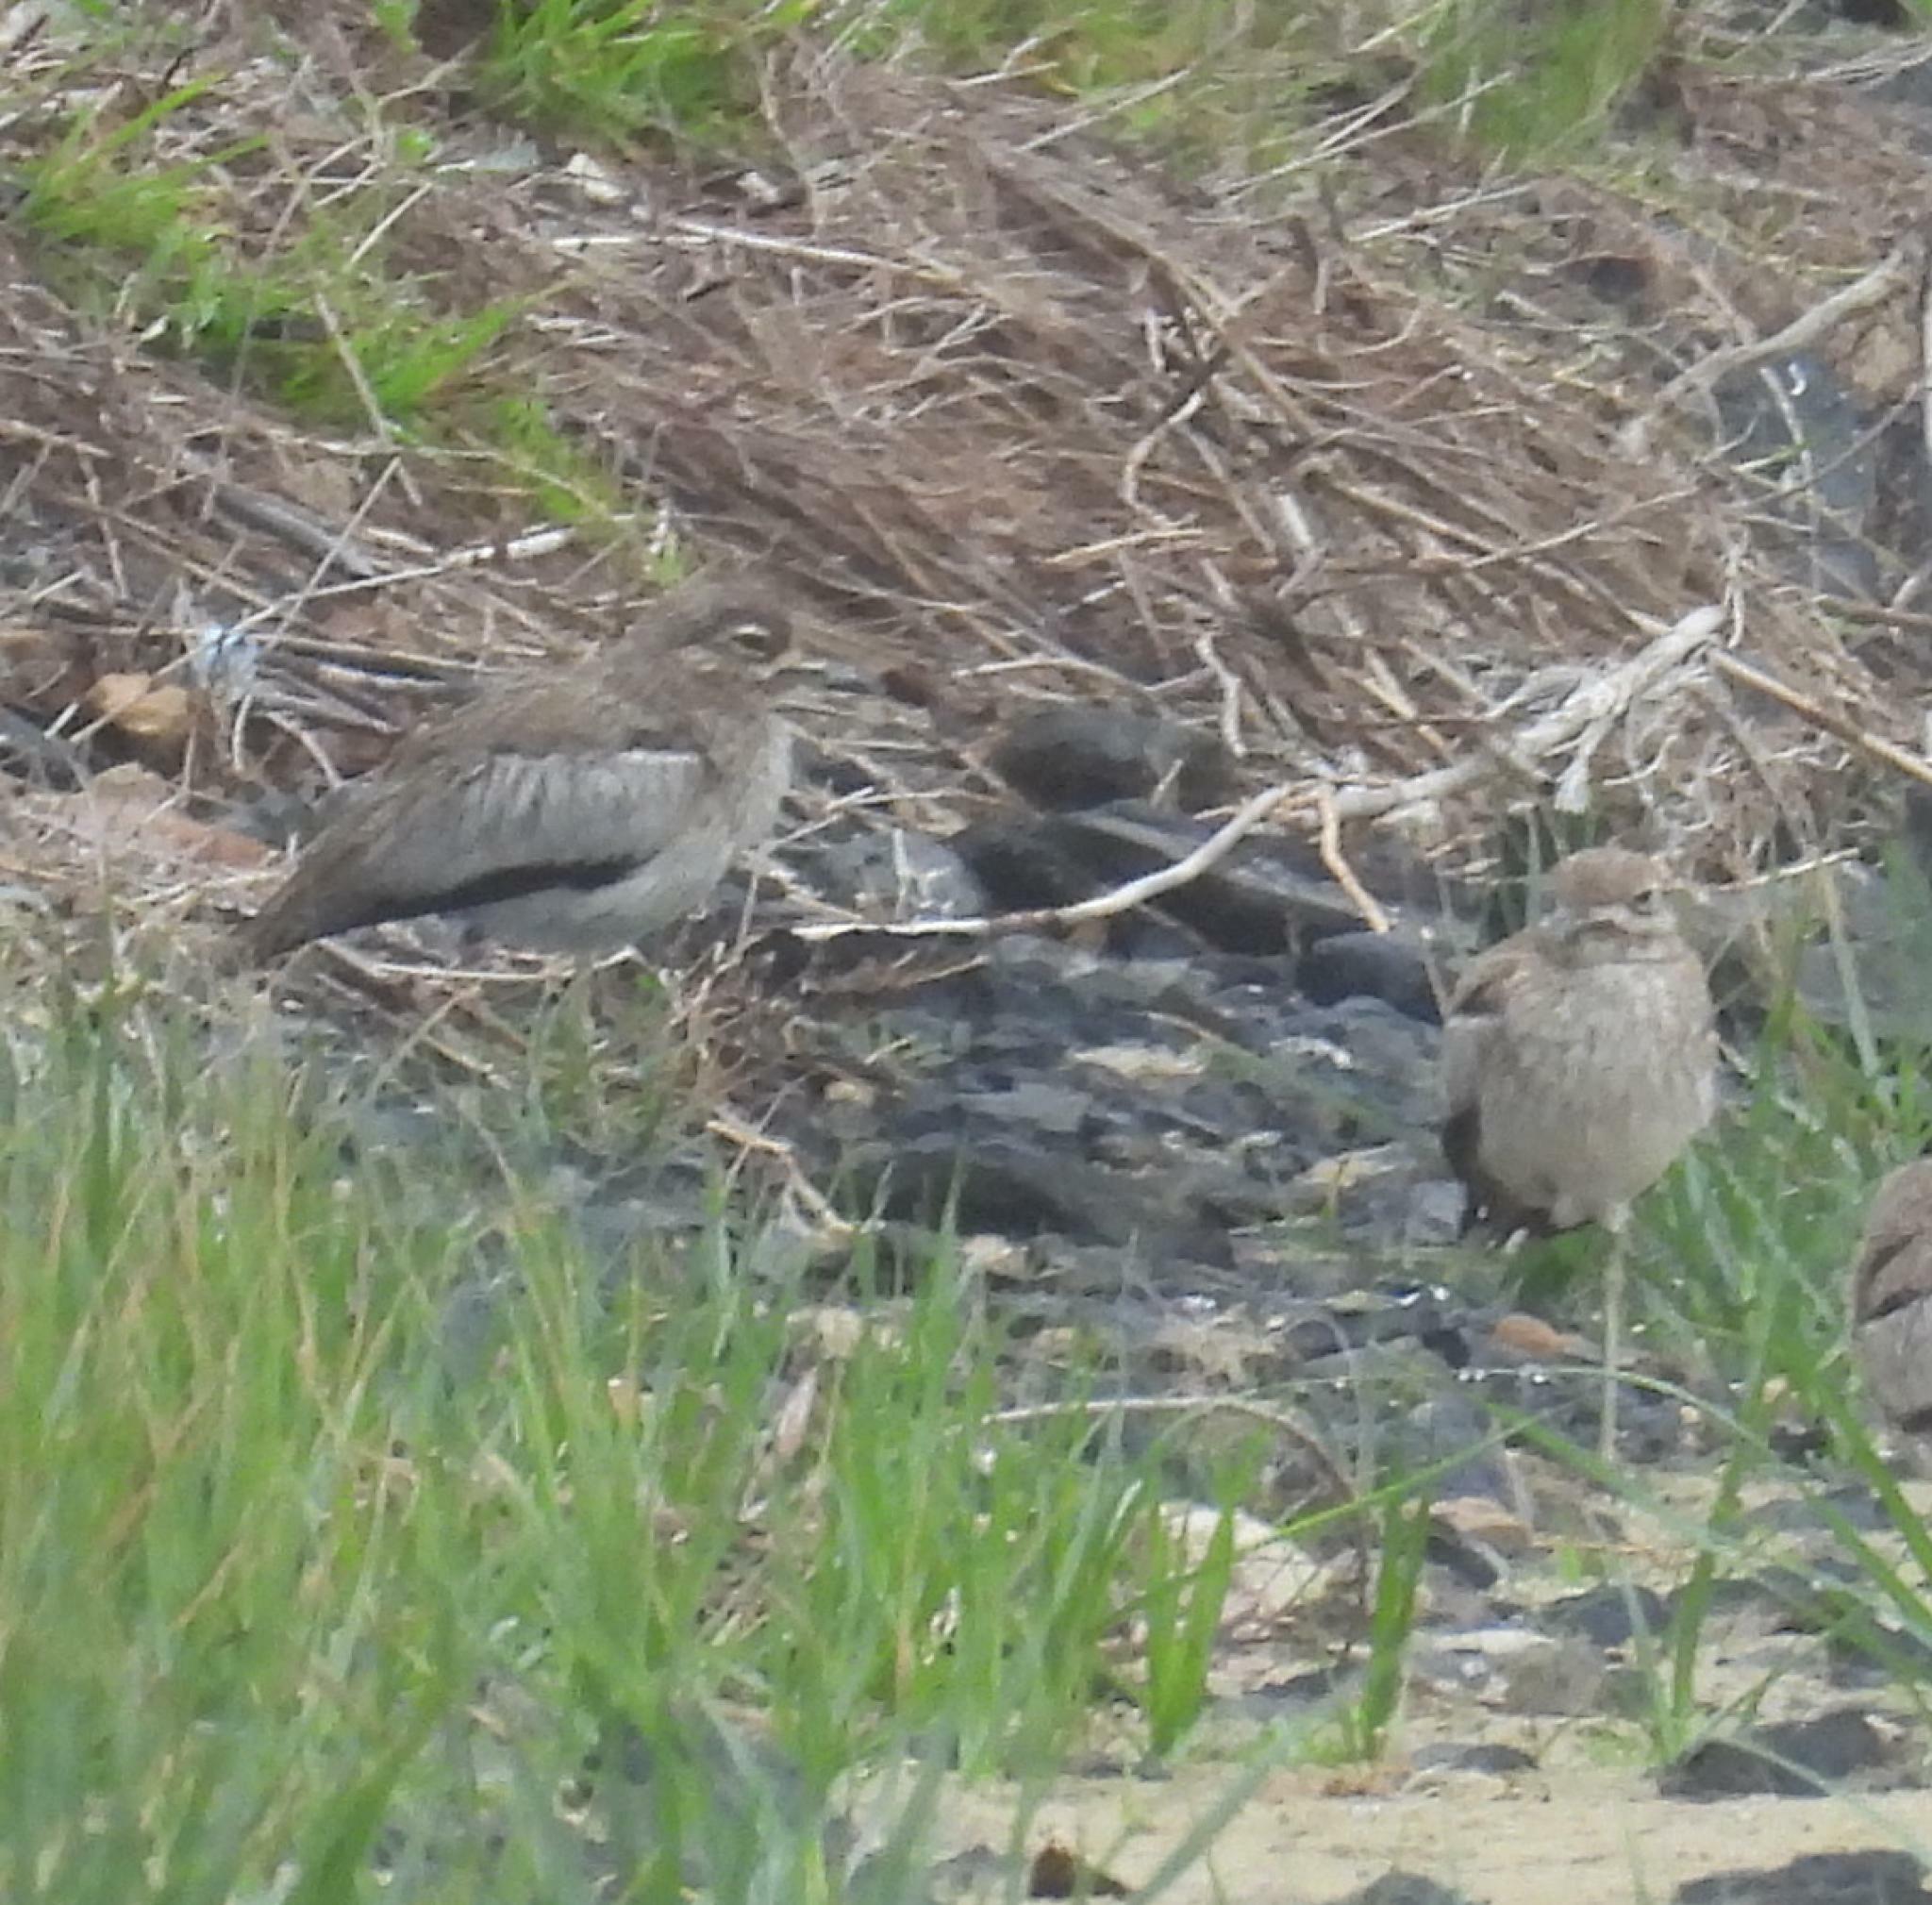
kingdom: Animalia
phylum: Chordata
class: Aves
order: Charadriiformes
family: Burhinidae
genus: Burhinus
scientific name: Burhinus vermiculatus
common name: Water thick-knee
